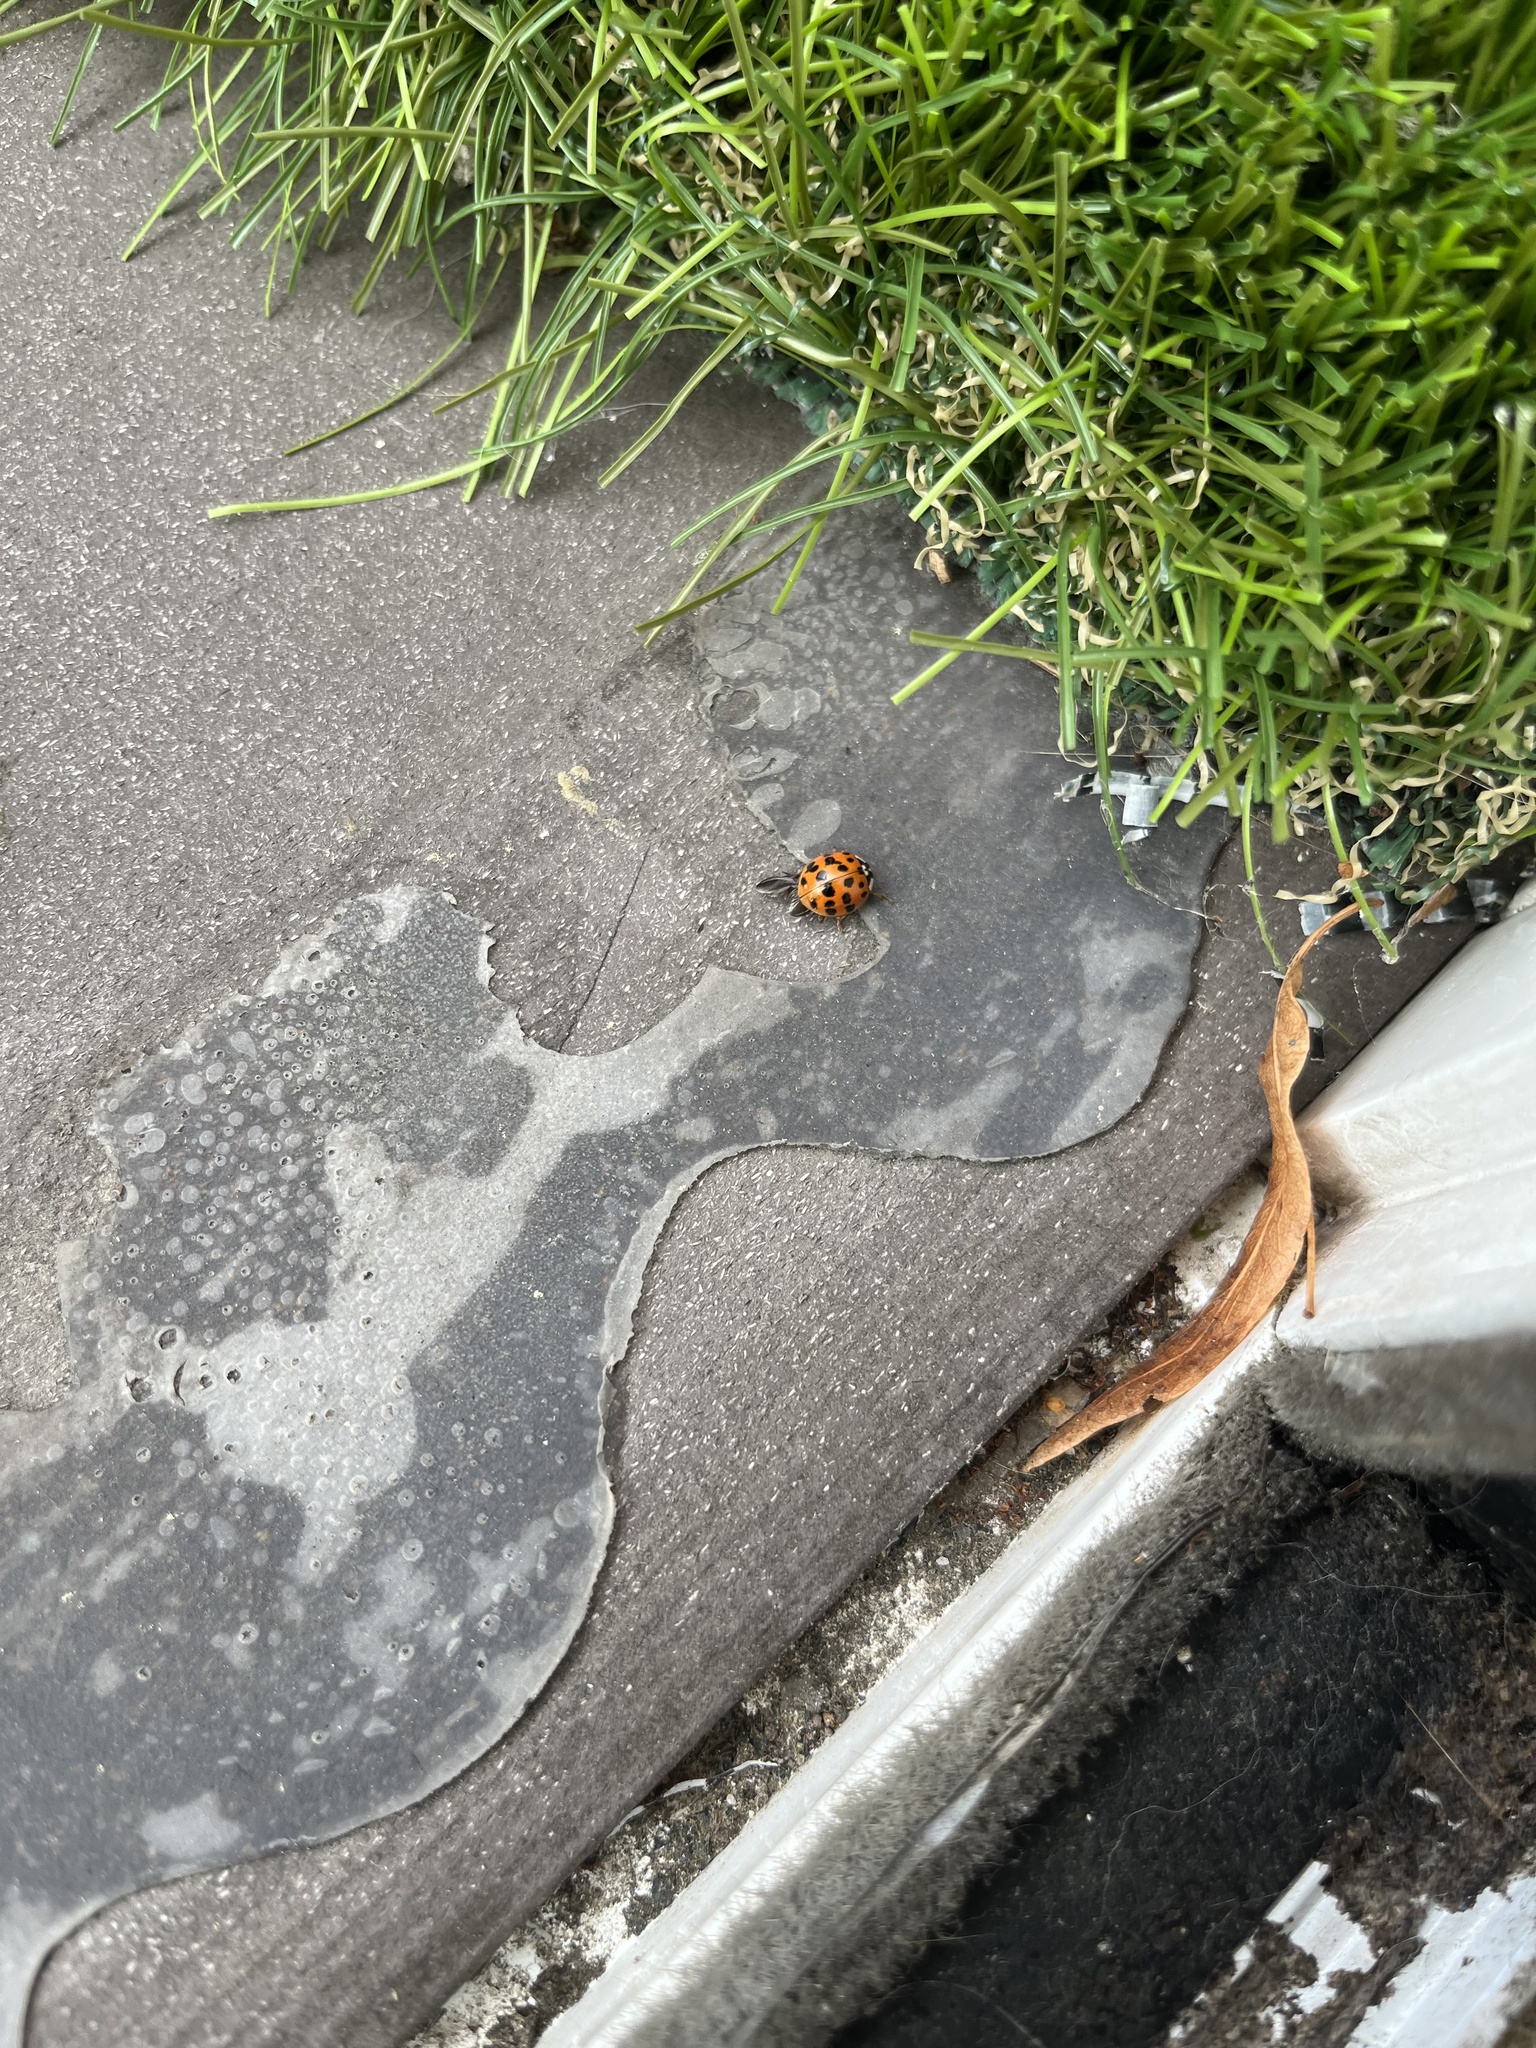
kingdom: Animalia
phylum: Arthropoda
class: Insecta
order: Coleoptera
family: Coccinellidae
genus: Harmonia
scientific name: Harmonia axyridis
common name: Harlequin ladybird
